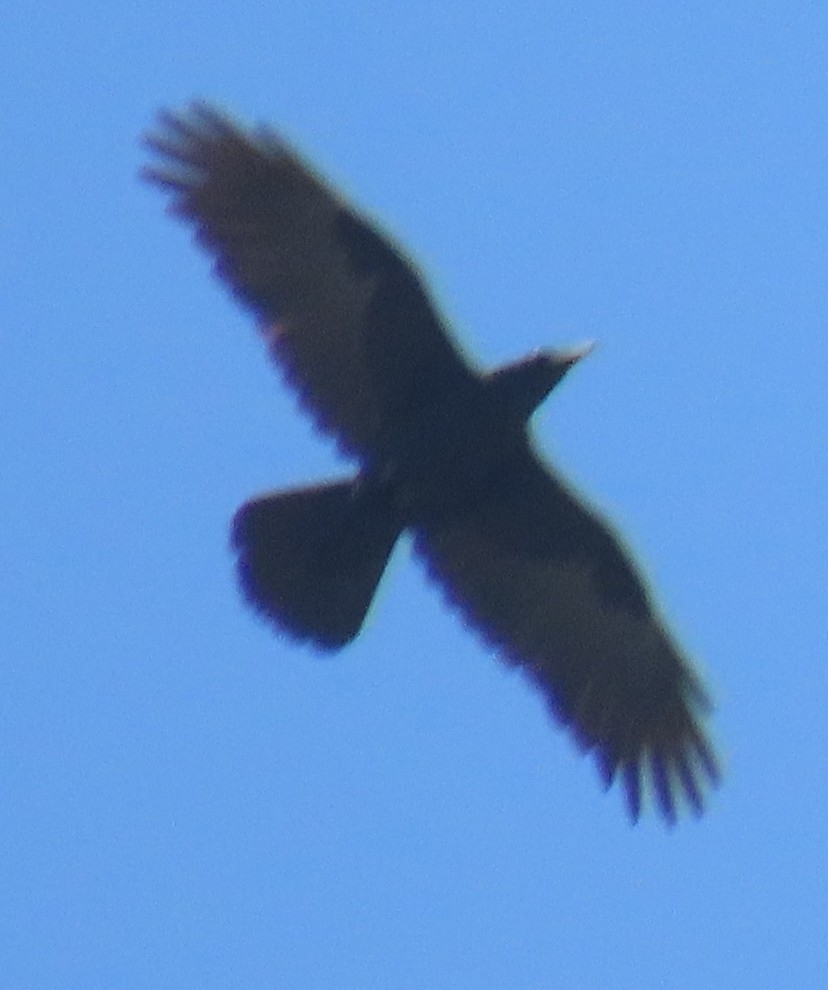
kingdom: Animalia
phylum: Chordata
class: Aves
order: Passeriformes
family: Corvidae
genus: Corvus
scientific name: Corvus corax
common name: Common raven
